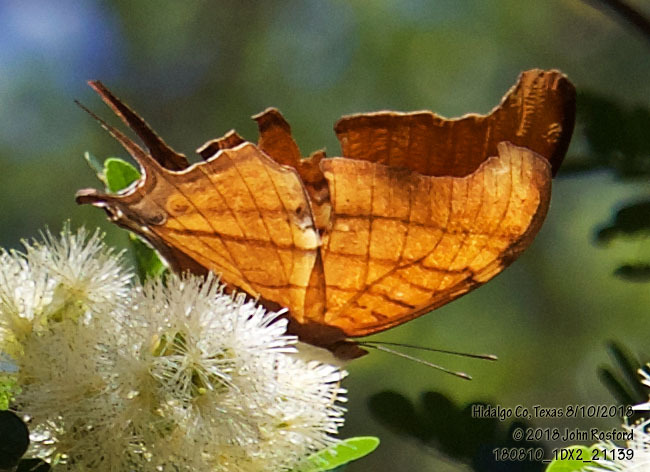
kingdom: Animalia
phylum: Arthropoda
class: Insecta
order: Lepidoptera
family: Nymphalidae
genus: Marpesia
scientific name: Marpesia petreus
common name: Red dagger wing
